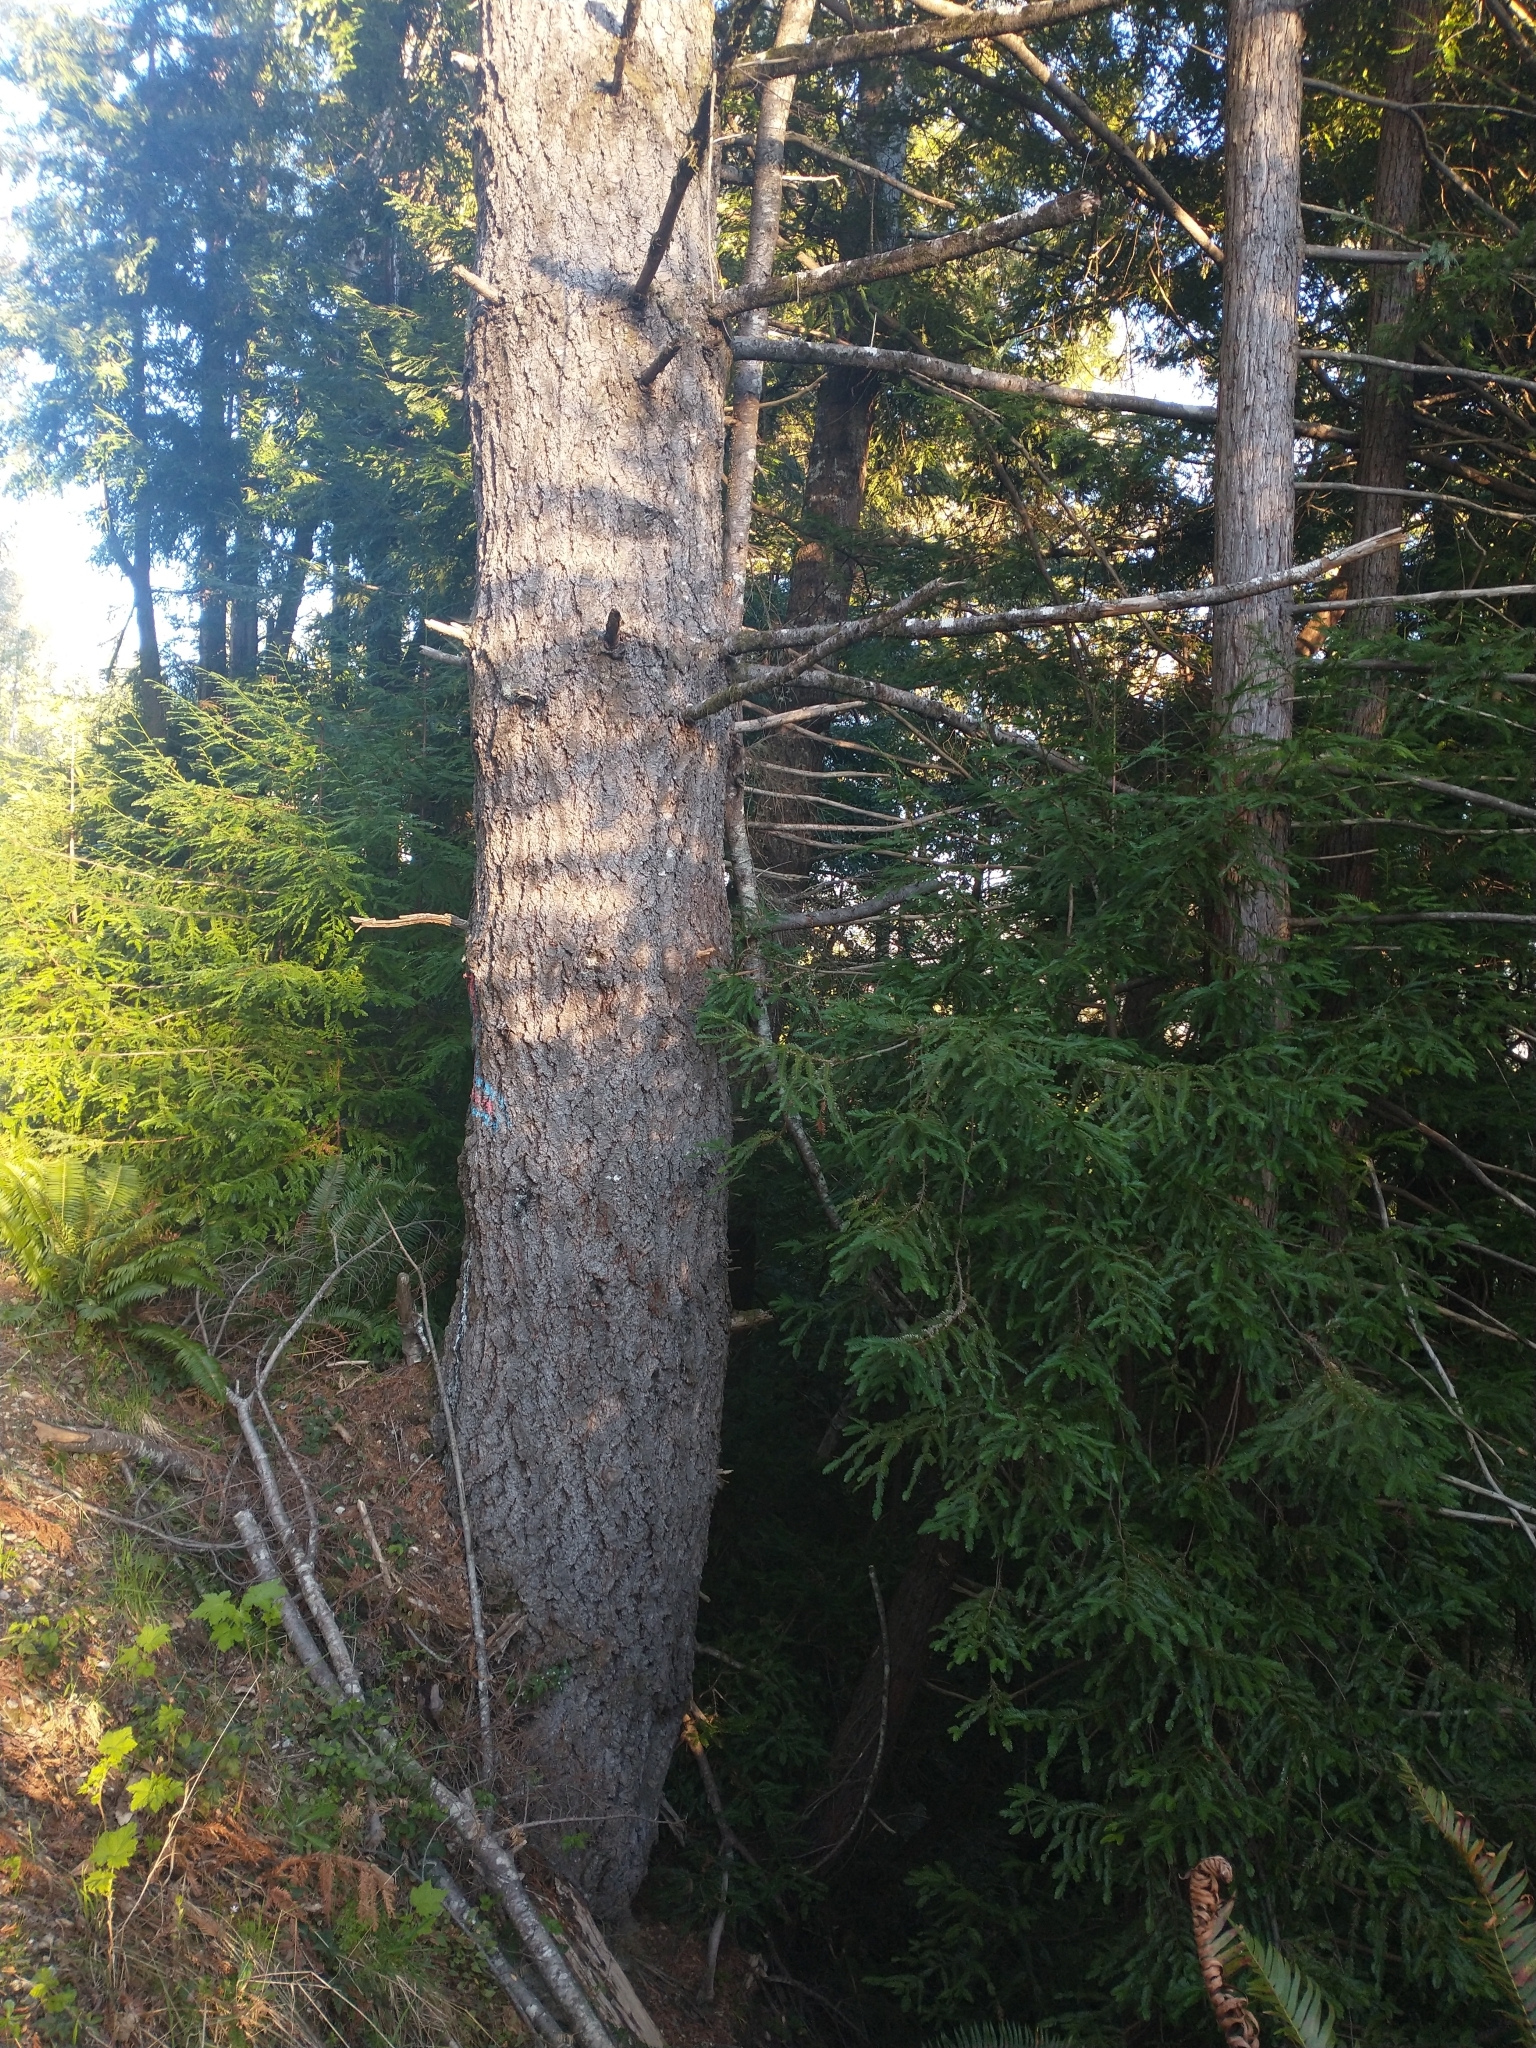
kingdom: Plantae
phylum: Tracheophyta
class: Pinopsida
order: Pinales
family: Pinaceae
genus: Pseudotsuga
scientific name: Pseudotsuga menziesii
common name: Douglas fir
